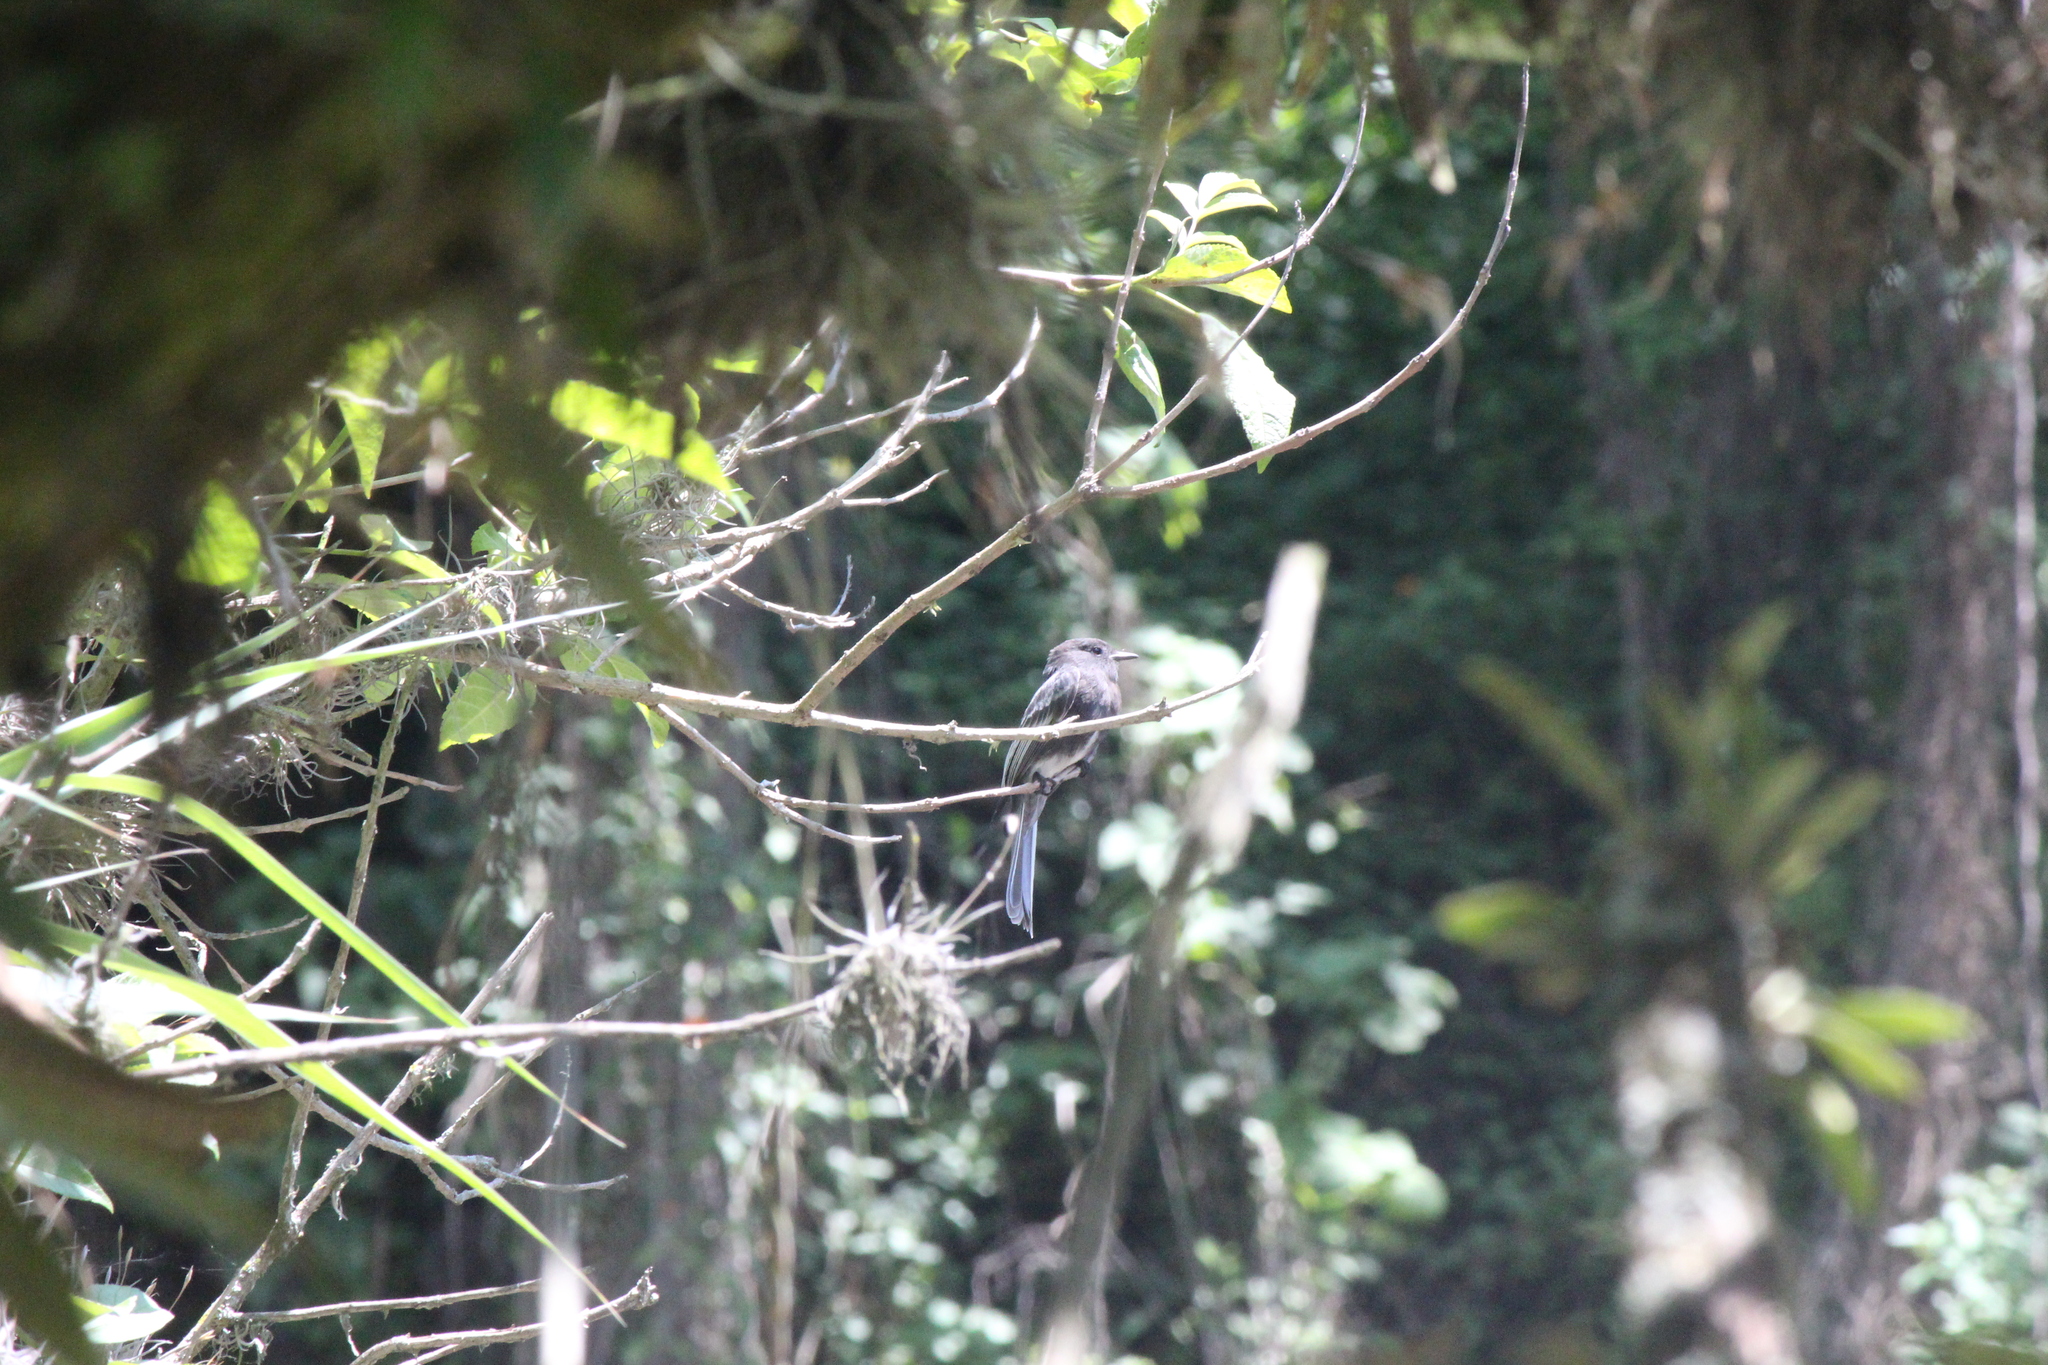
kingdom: Animalia
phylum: Chordata
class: Aves
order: Passeriformes
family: Tyrannidae
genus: Sayornis
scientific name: Sayornis nigricans
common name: Black phoebe
